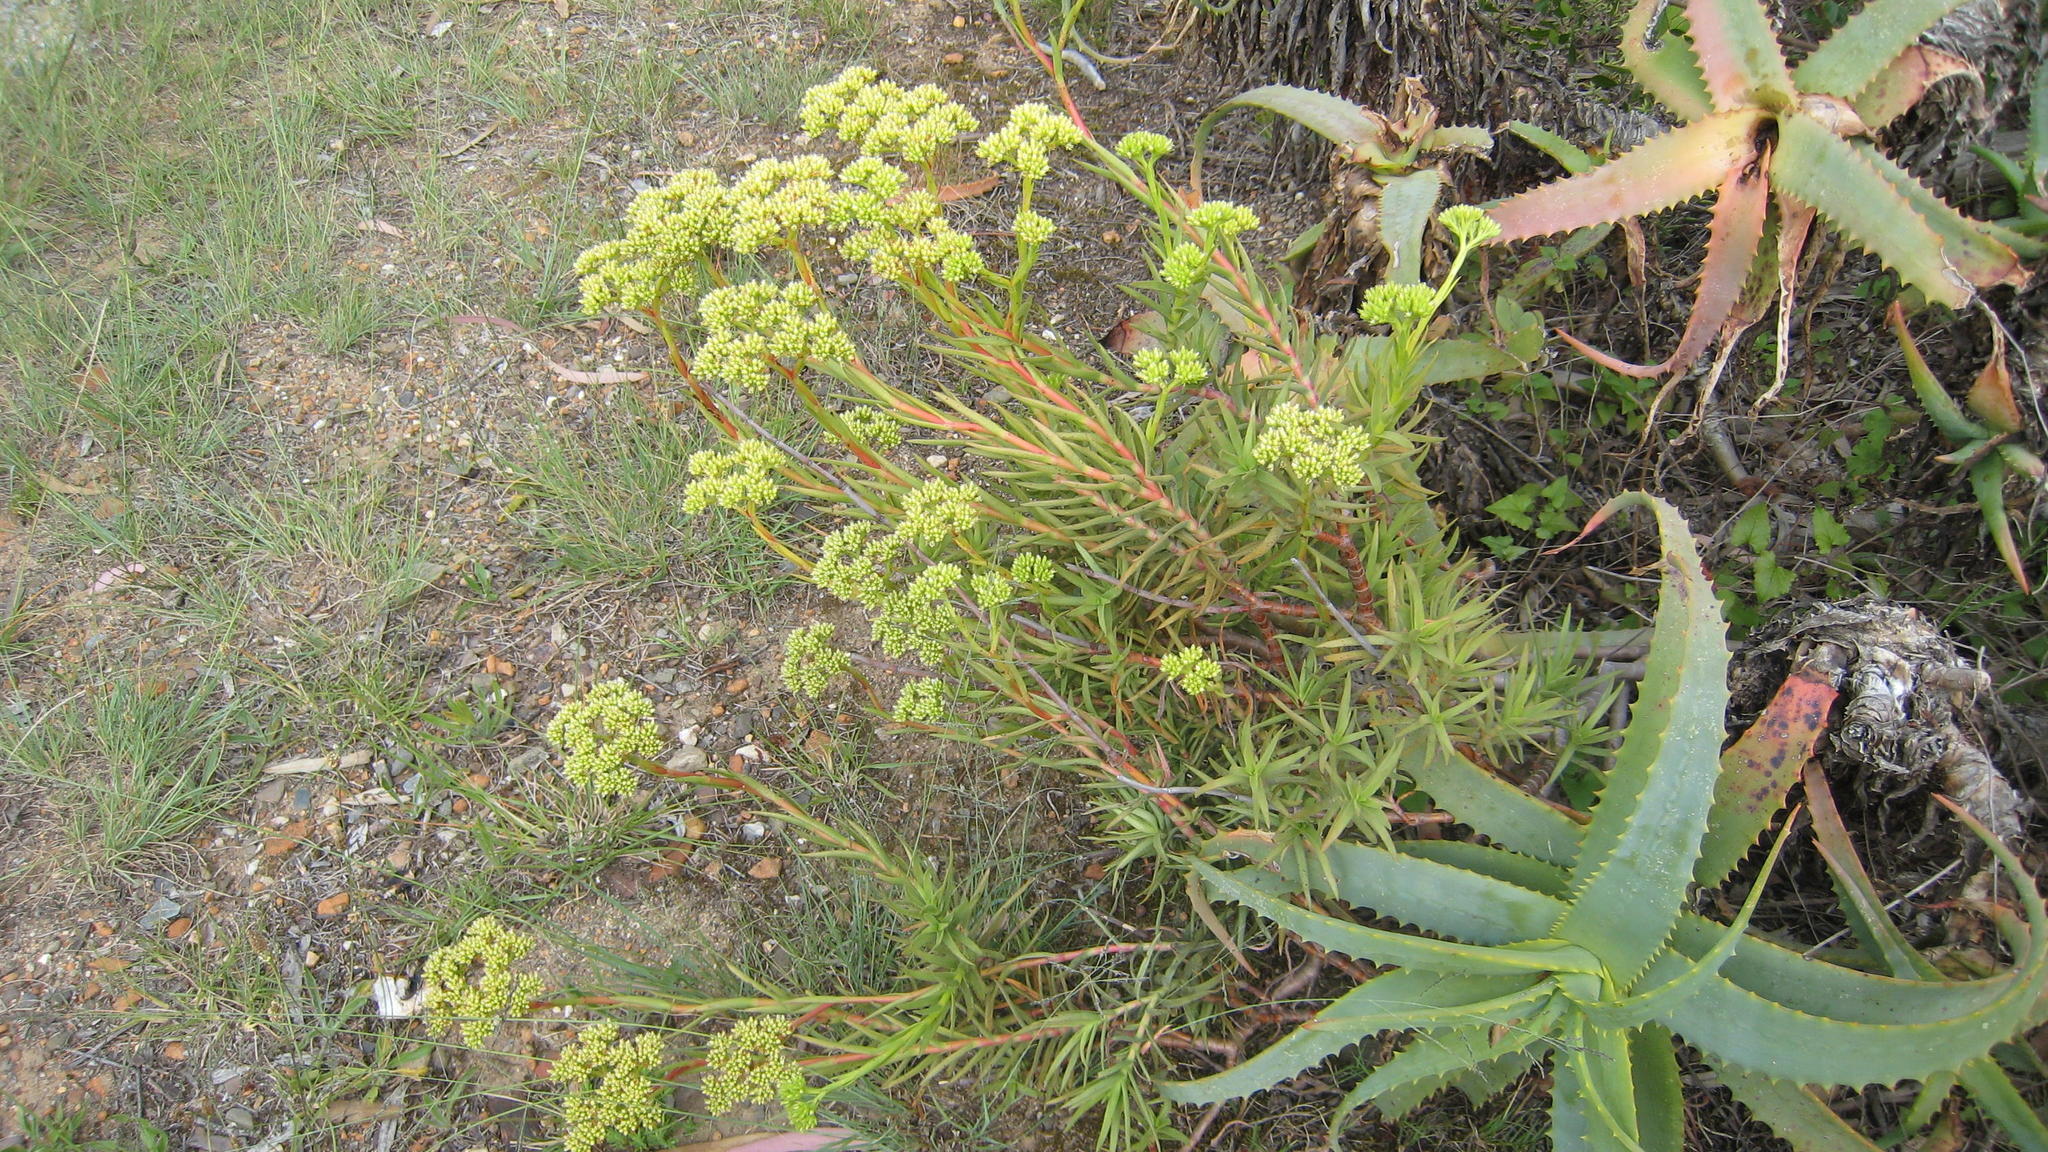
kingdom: Plantae
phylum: Tracheophyta
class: Magnoliopsida
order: Saxifragales
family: Crassulaceae
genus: Crassula
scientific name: Crassula multiflora
